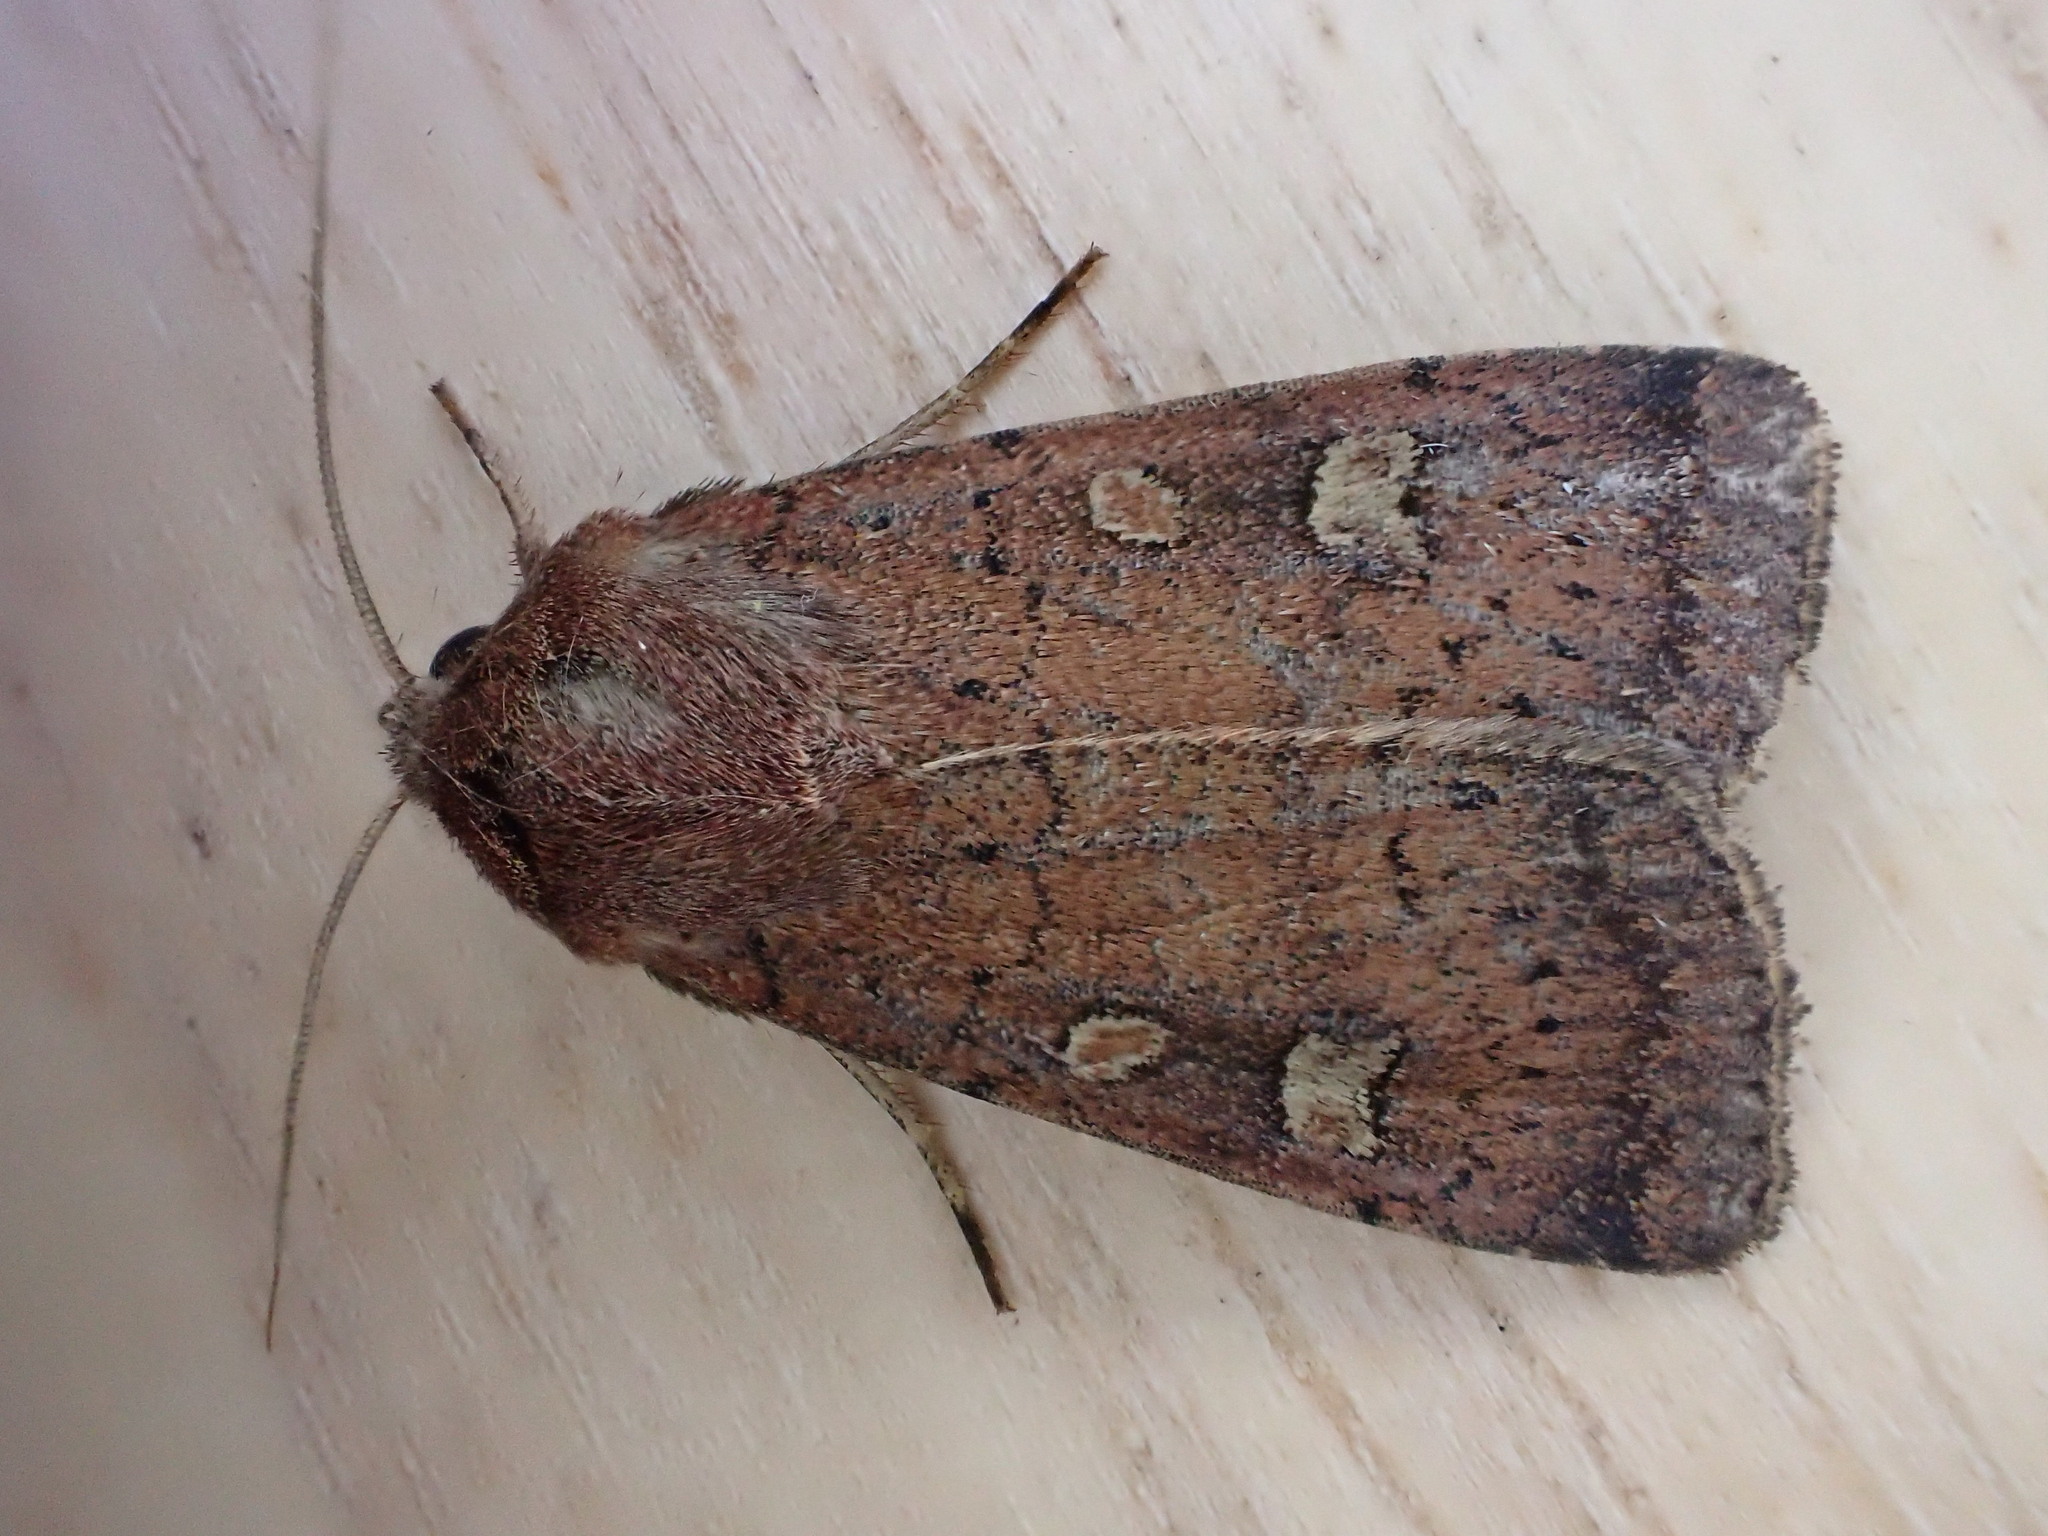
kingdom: Animalia
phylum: Arthropoda
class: Insecta
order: Lepidoptera
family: Noctuidae
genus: Xestia
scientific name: Xestia xanthographa
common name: Square-spot rustic
